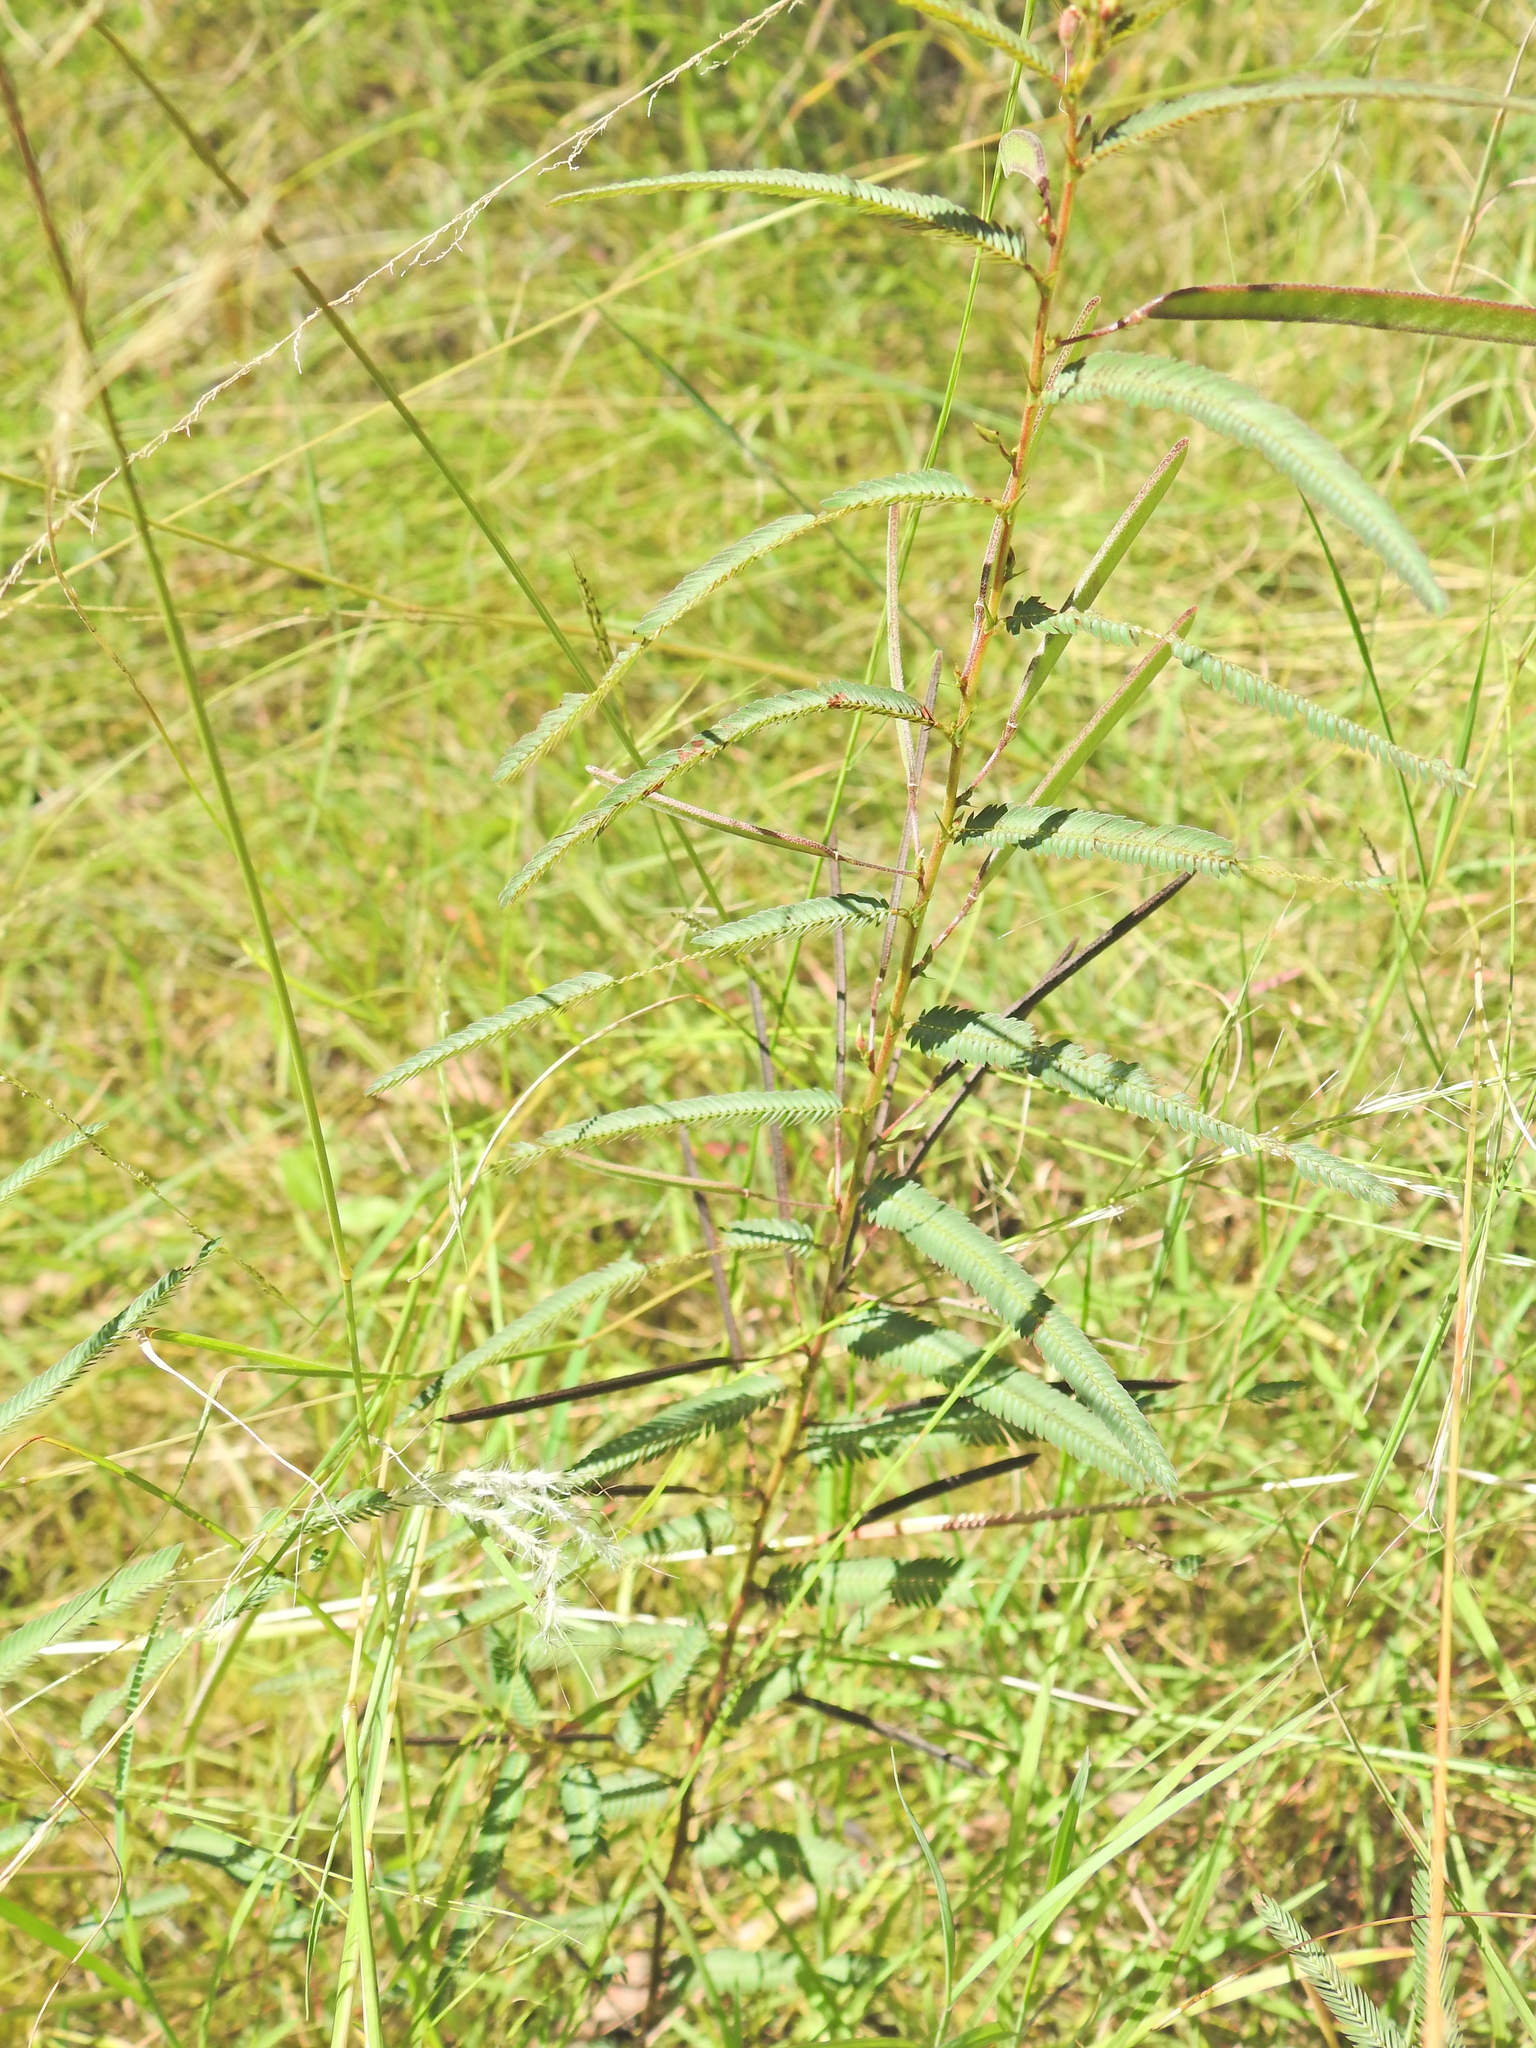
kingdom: Plantae
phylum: Tracheophyta
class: Magnoliopsida
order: Fabales
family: Fabaceae
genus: Chamaecrista
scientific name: Chamaecrista nomame
